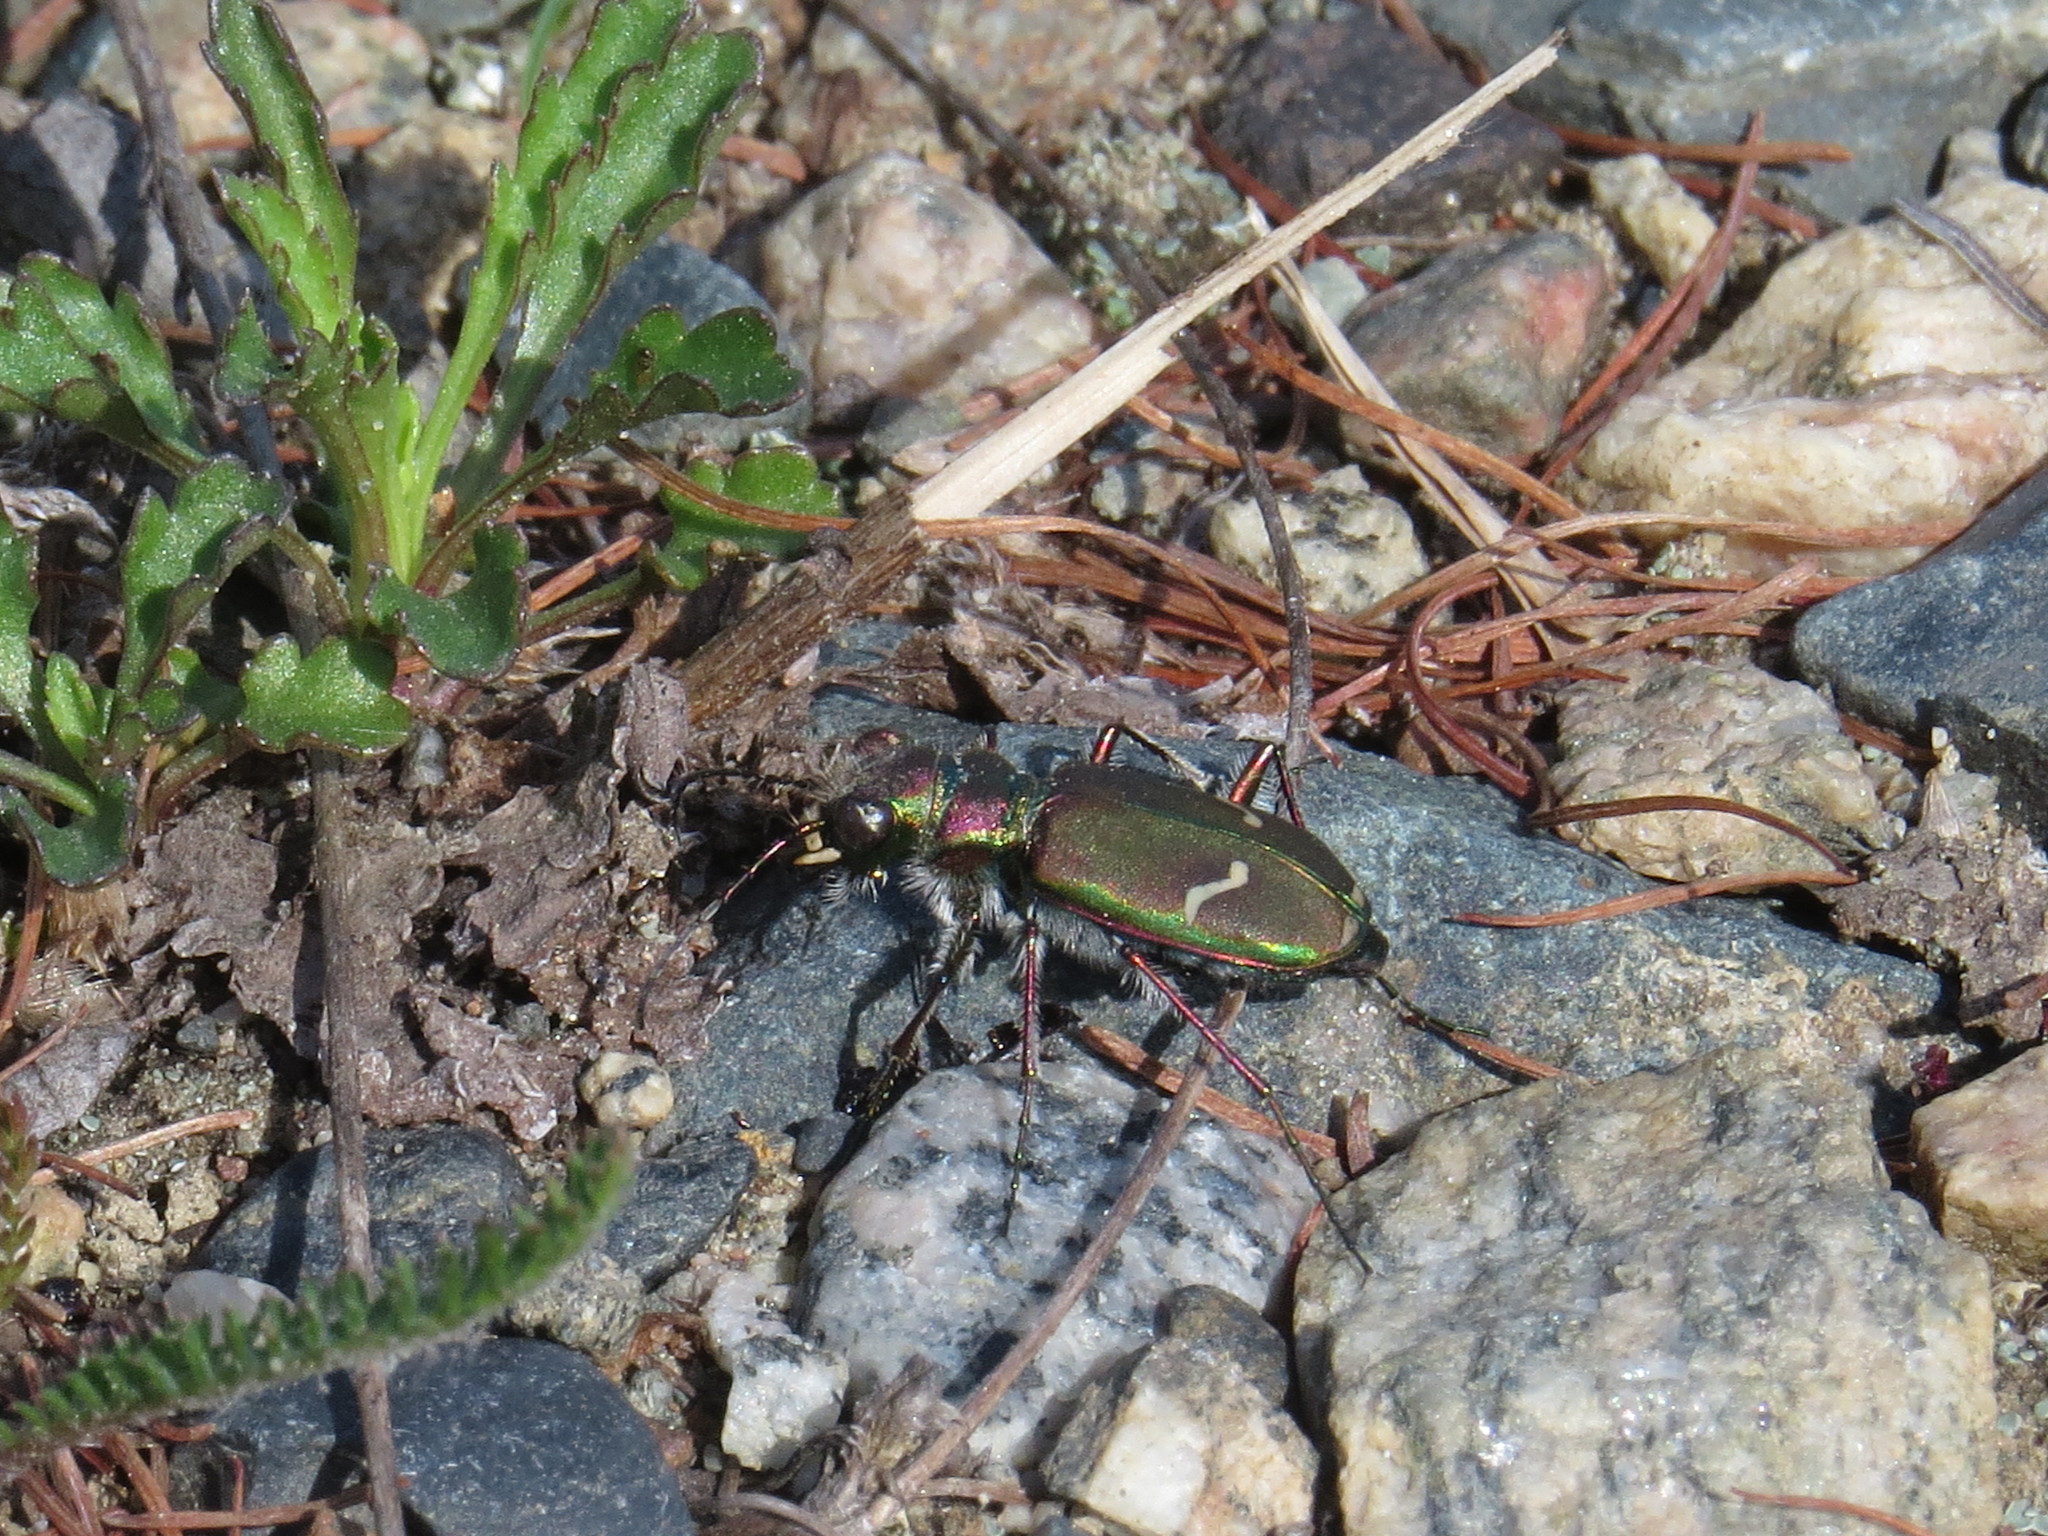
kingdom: Animalia
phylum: Arthropoda
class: Insecta
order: Coleoptera
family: Carabidae
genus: Cicindela
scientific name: Cicindela purpurea
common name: Cow path tiger beetle
